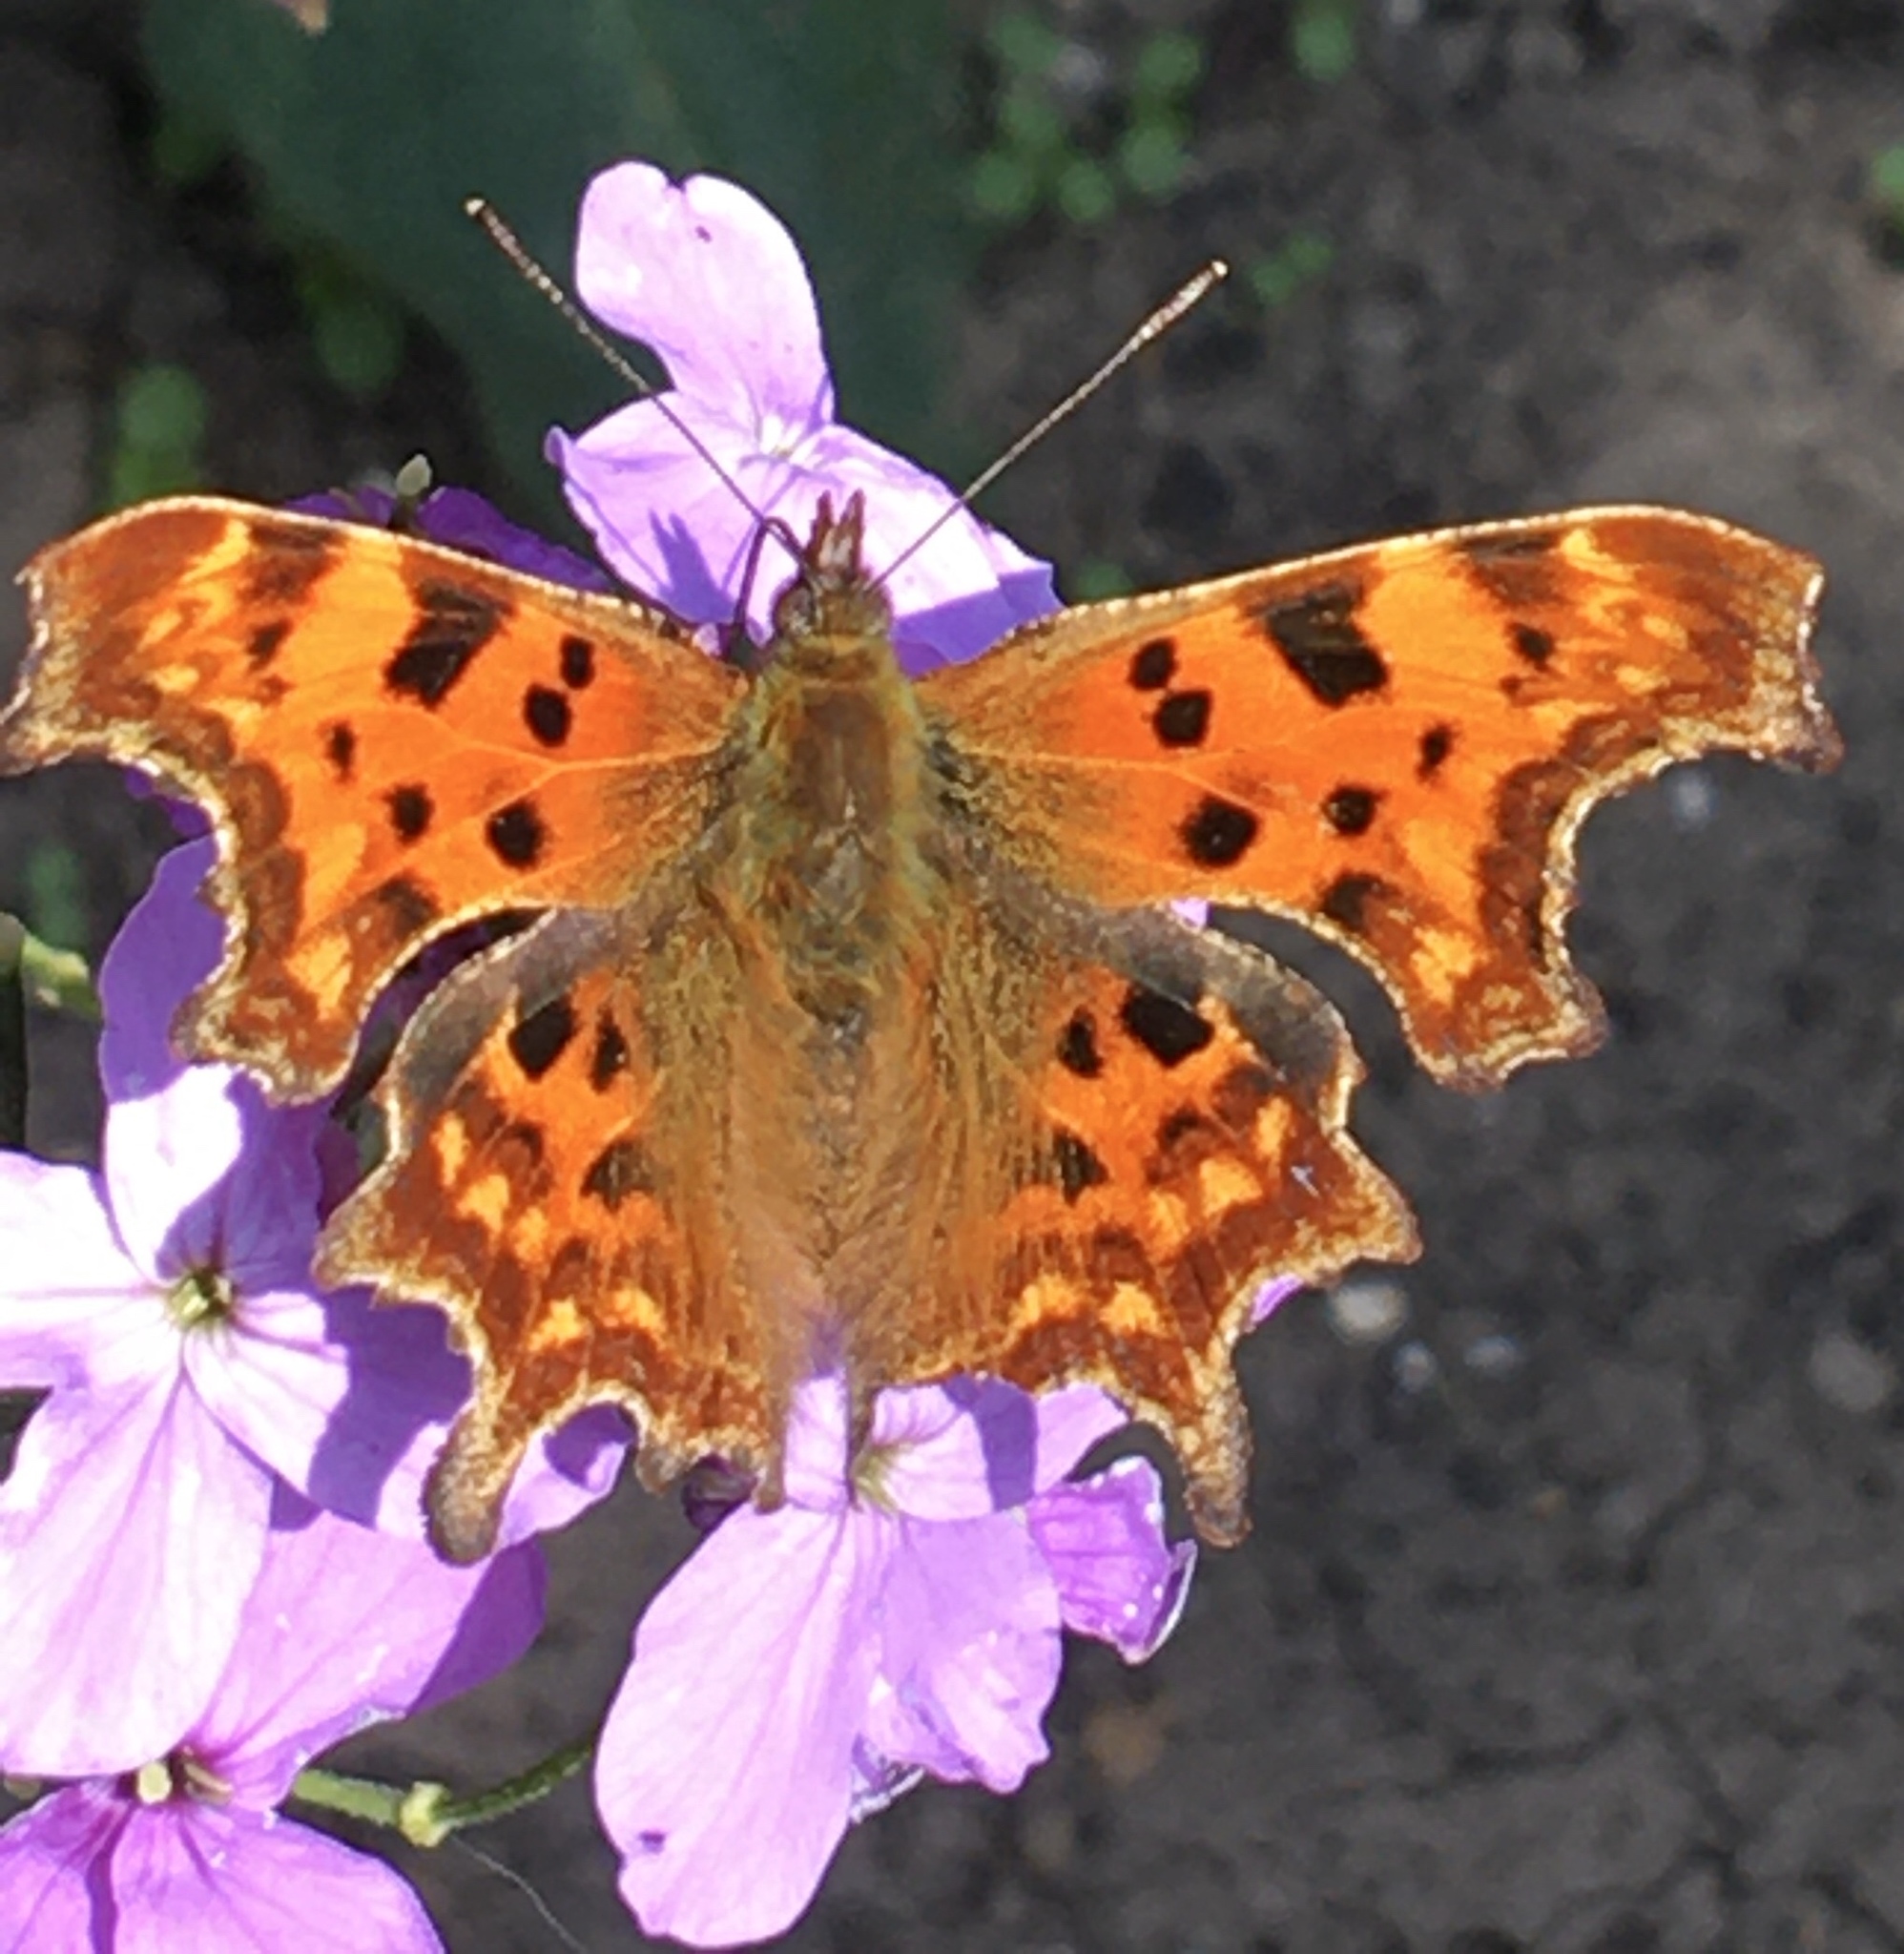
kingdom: Animalia
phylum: Arthropoda
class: Insecta
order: Lepidoptera
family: Nymphalidae
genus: Polygonia
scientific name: Polygonia c-album
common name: Comma
